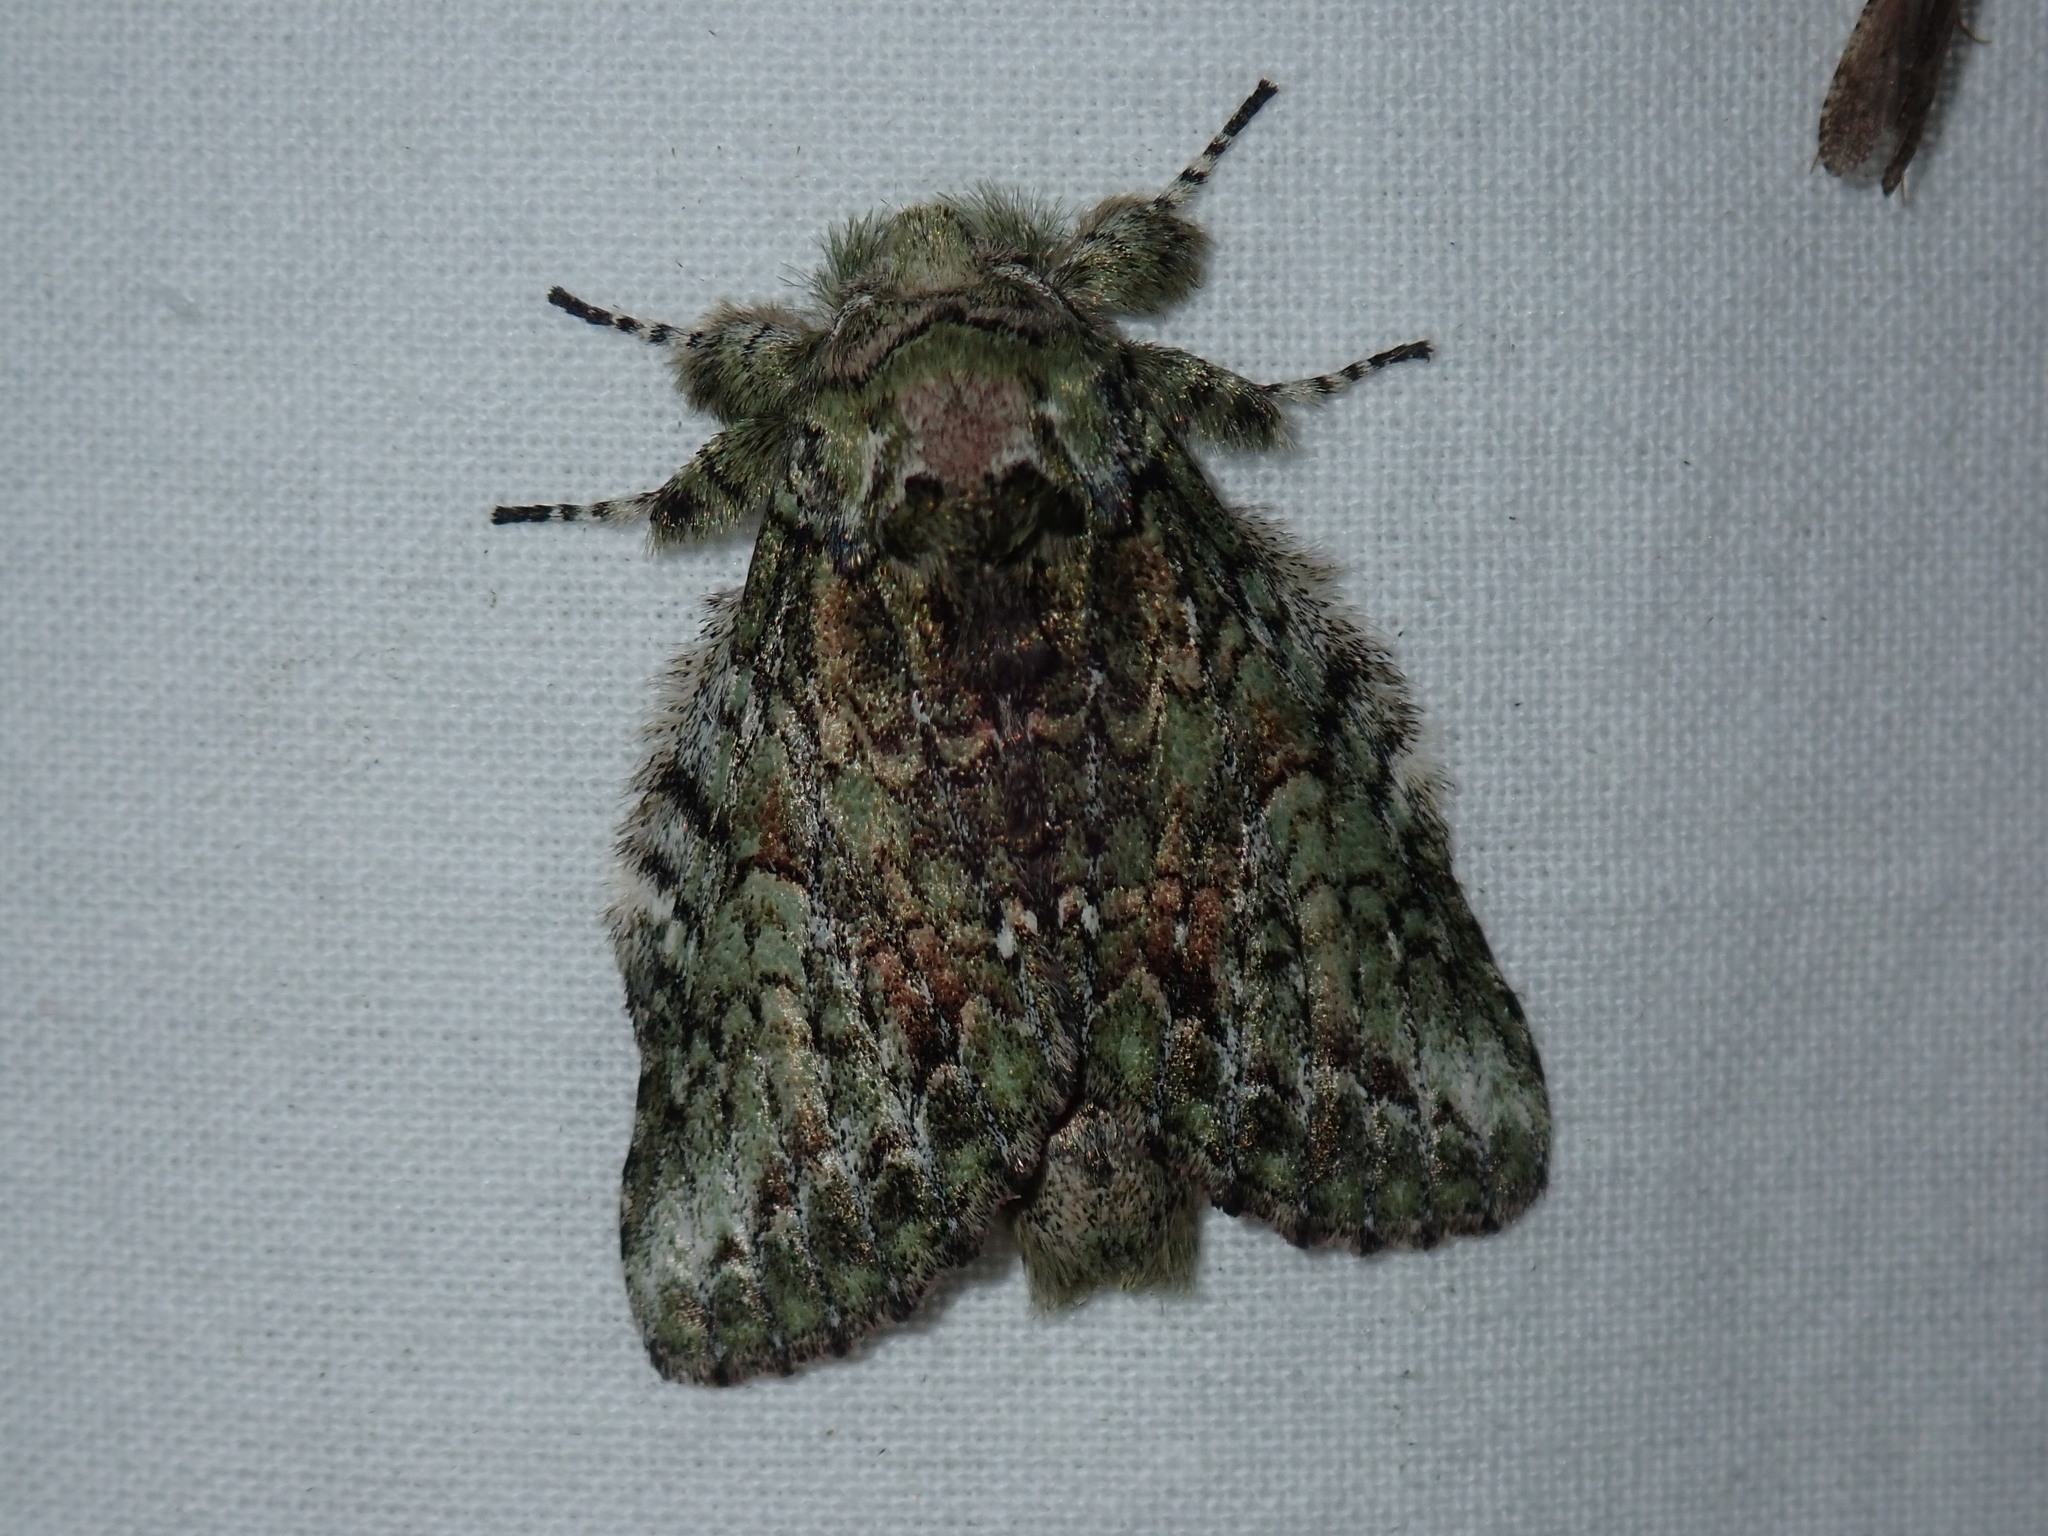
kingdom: Animalia
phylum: Arthropoda
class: Insecta
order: Lepidoptera
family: Notodontidae
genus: Heterocampa
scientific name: Heterocampa
